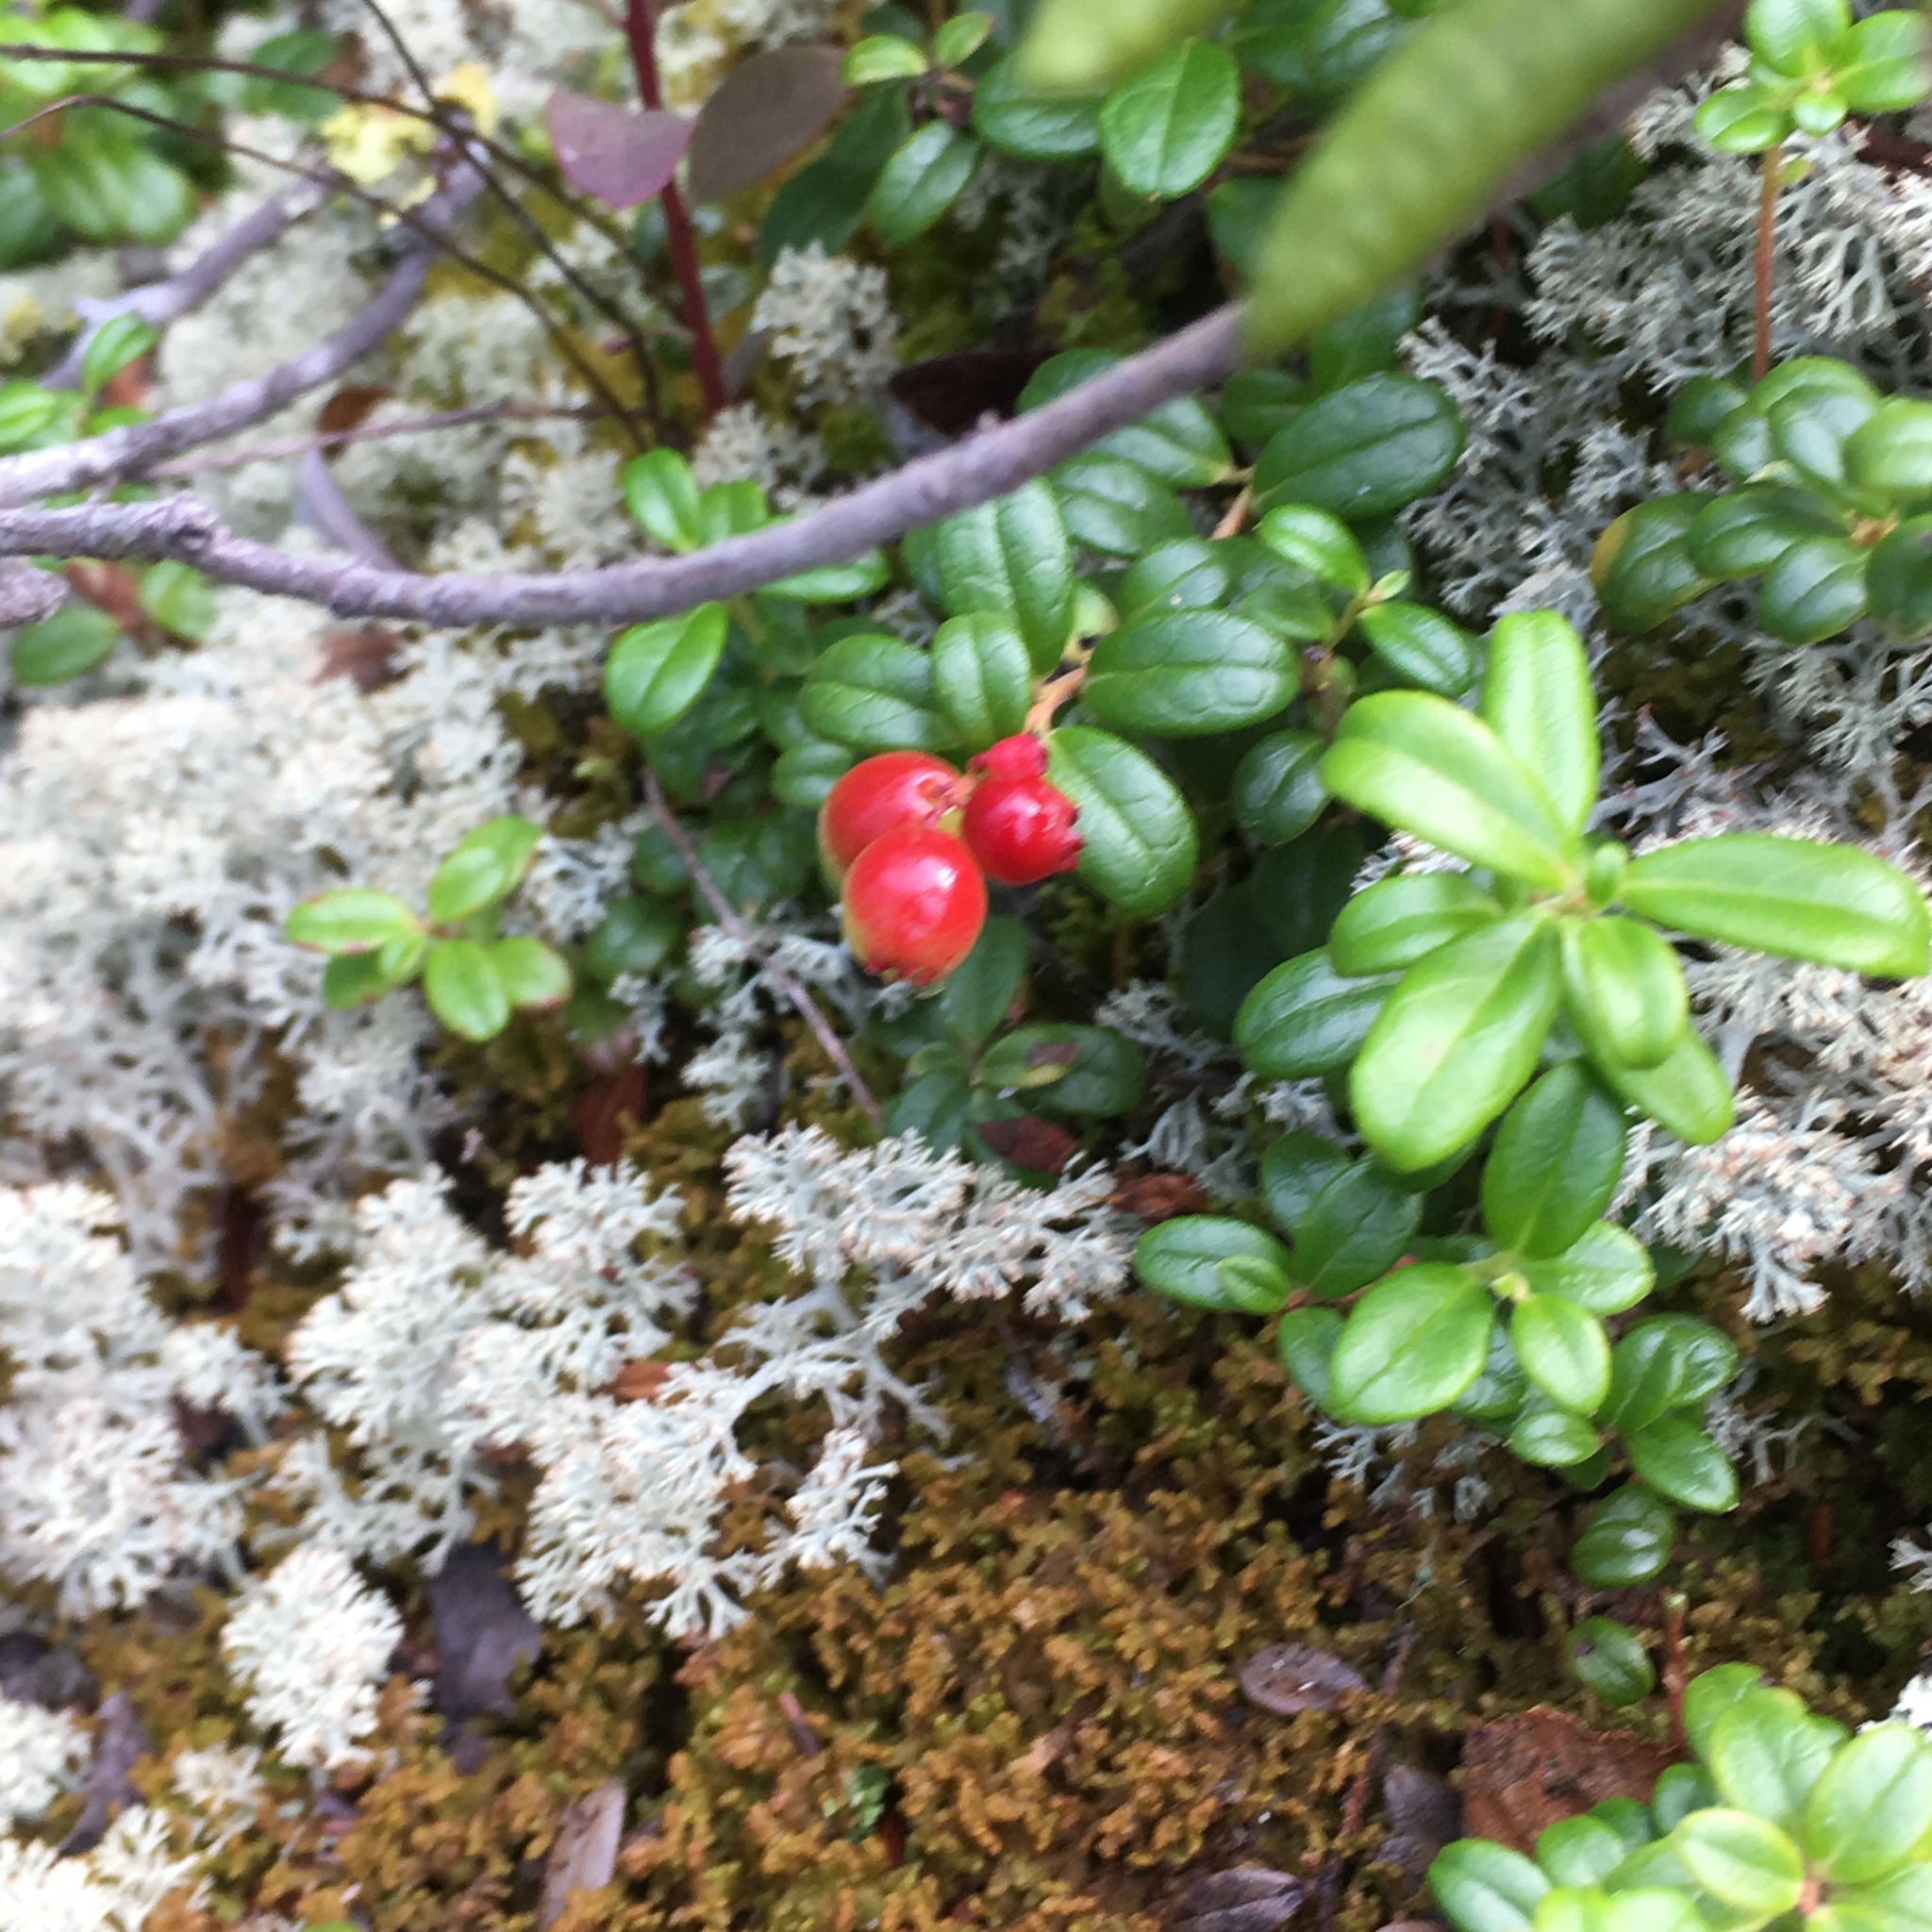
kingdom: Plantae
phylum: Tracheophyta
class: Magnoliopsida
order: Ericales
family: Ericaceae
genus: Vaccinium
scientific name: Vaccinium vitis-idaea
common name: Cowberry
